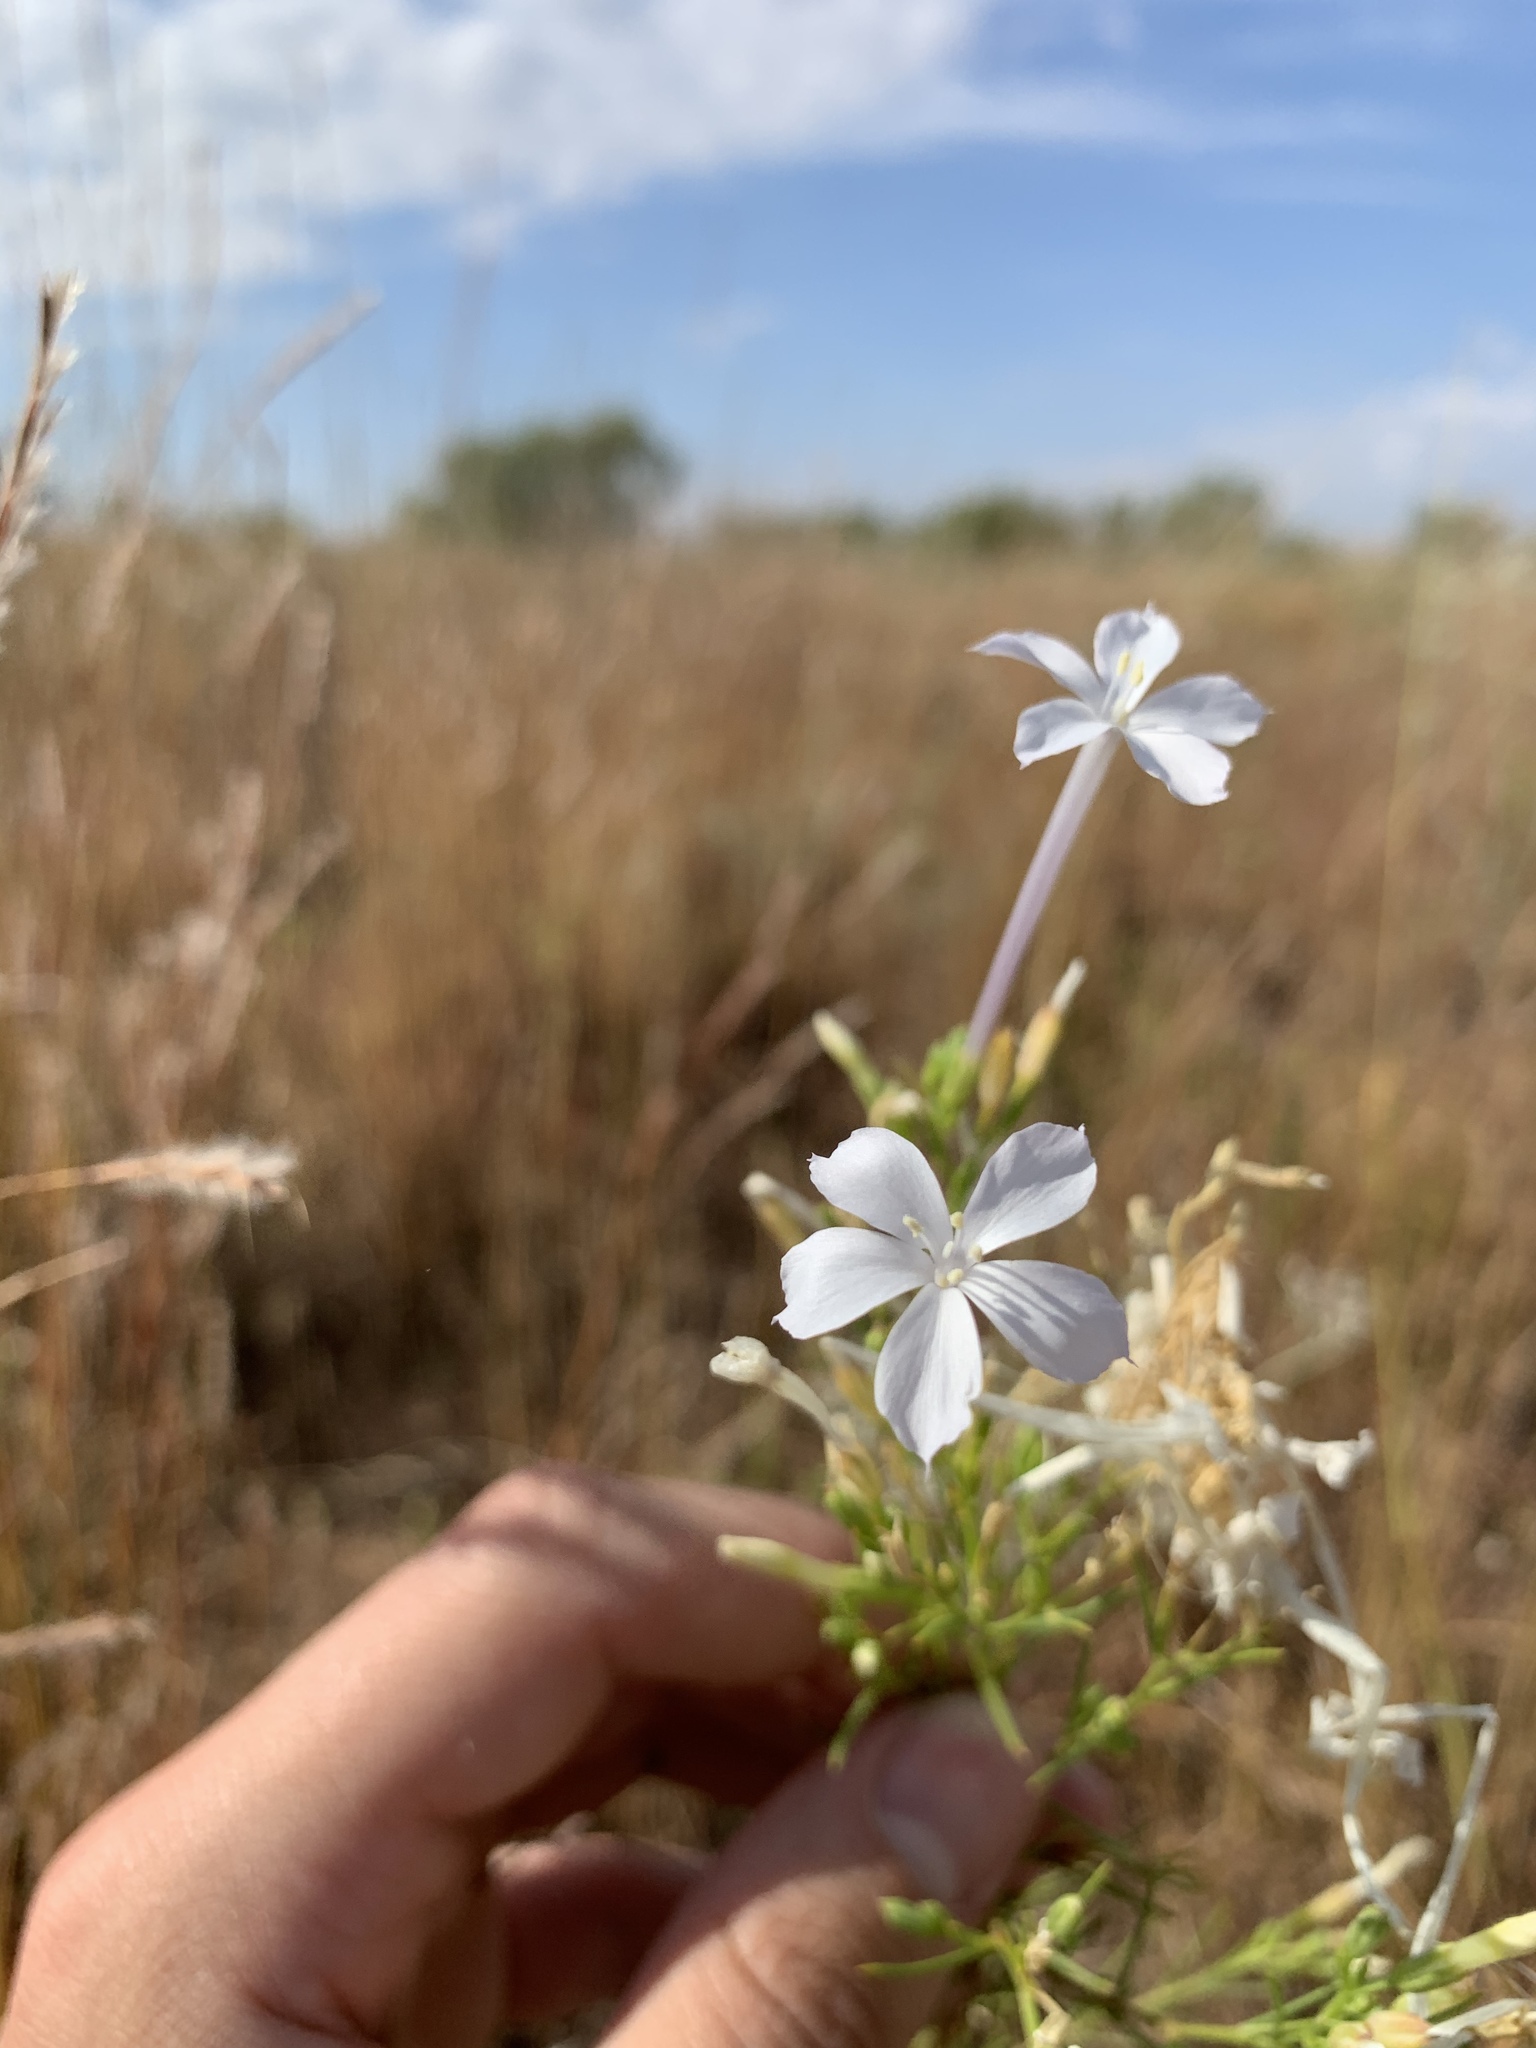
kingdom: Plantae
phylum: Tracheophyta
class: Magnoliopsida
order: Ericales
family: Polemoniaceae
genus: Ipomopsis
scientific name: Ipomopsis longiflora
